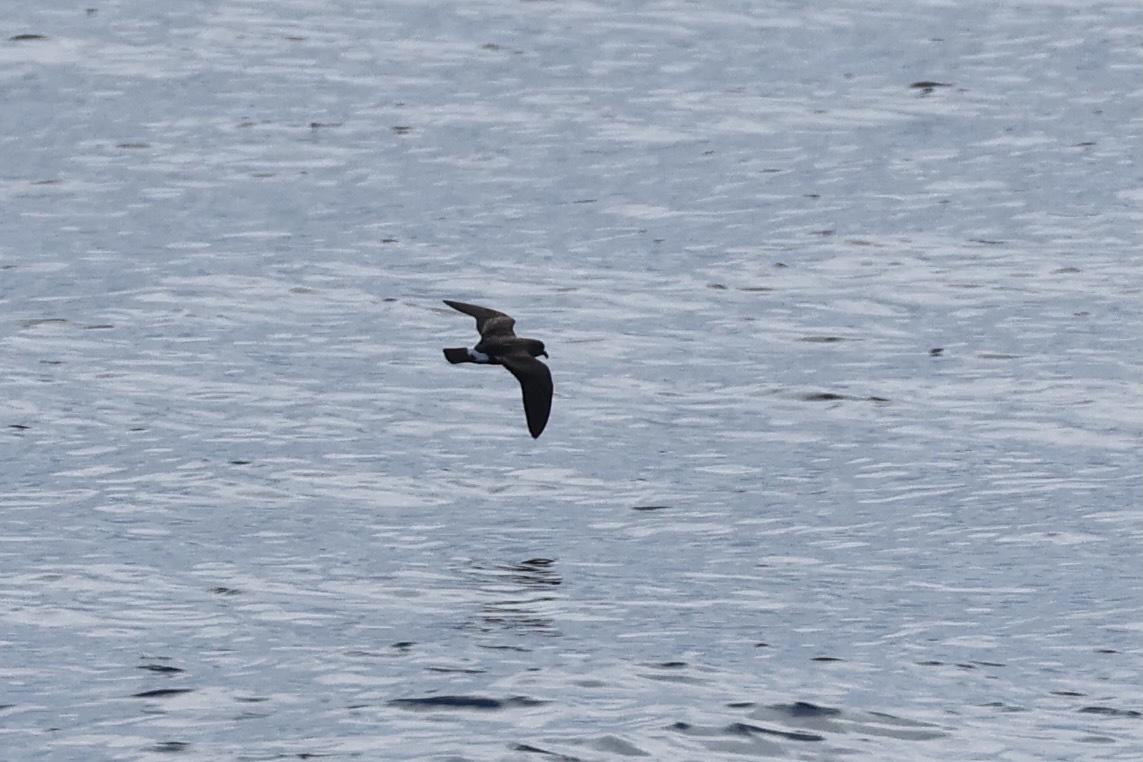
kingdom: Animalia
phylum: Chordata
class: Aves
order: Procellariiformes
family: Hydrobatidae
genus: Oceanodroma
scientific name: Oceanodroma castro
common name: Band-rumped storm-petrel
